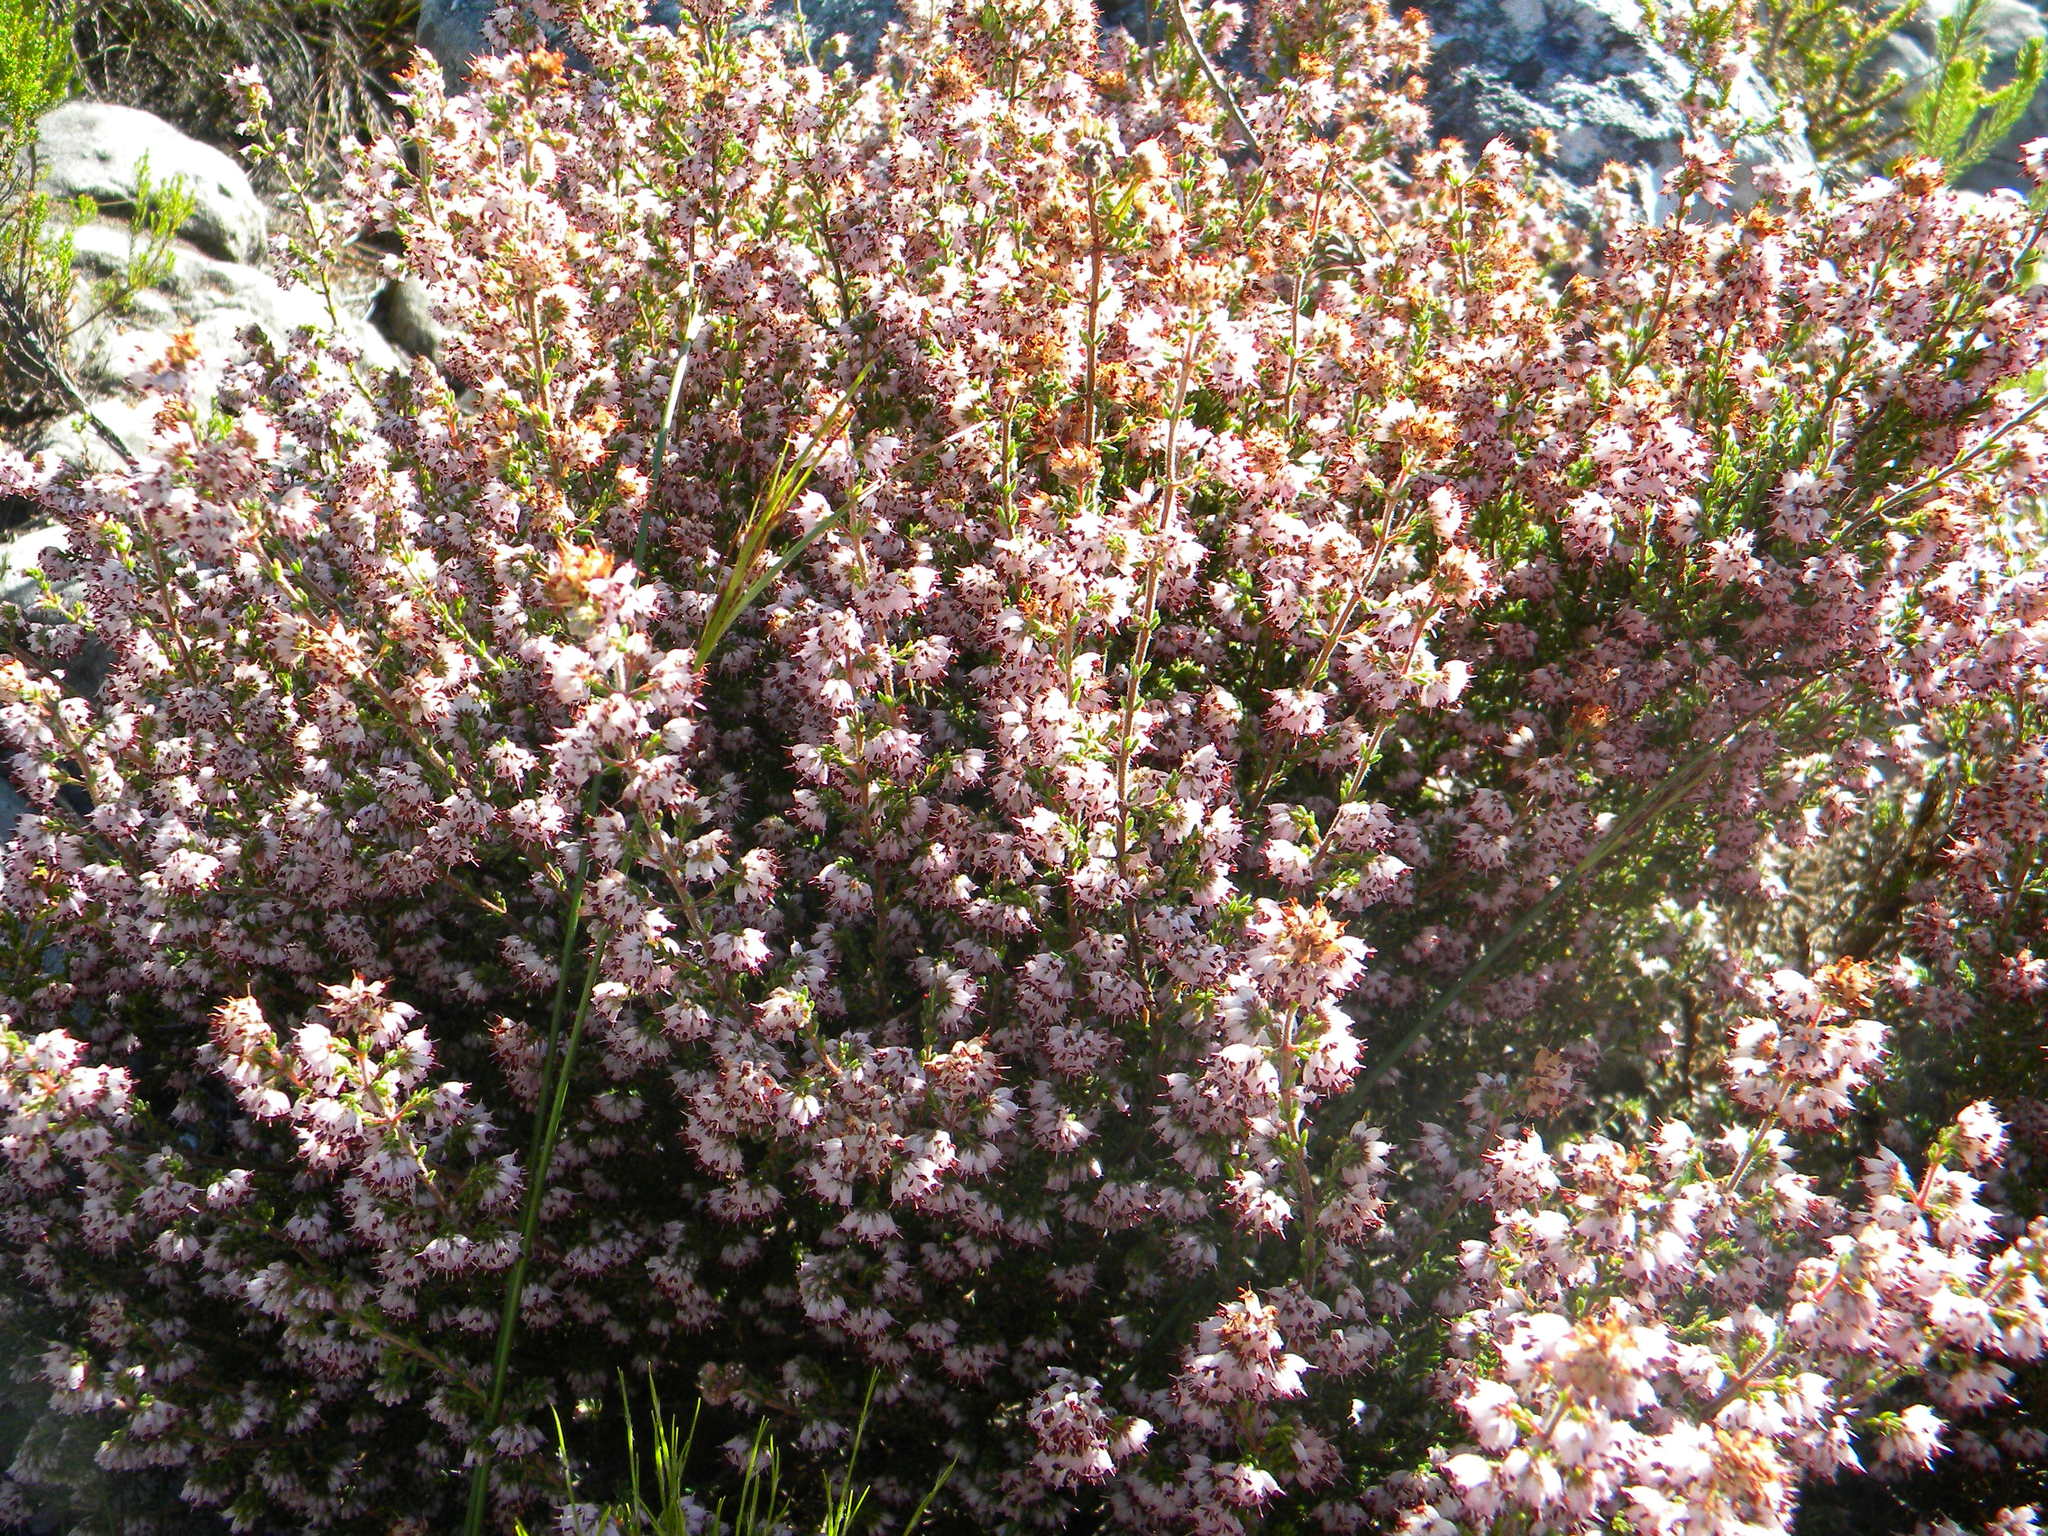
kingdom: Plantae
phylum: Tracheophyta
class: Magnoliopsida
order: Ericales
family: Ericaceae
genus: Erica
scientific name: Erica ericoides
